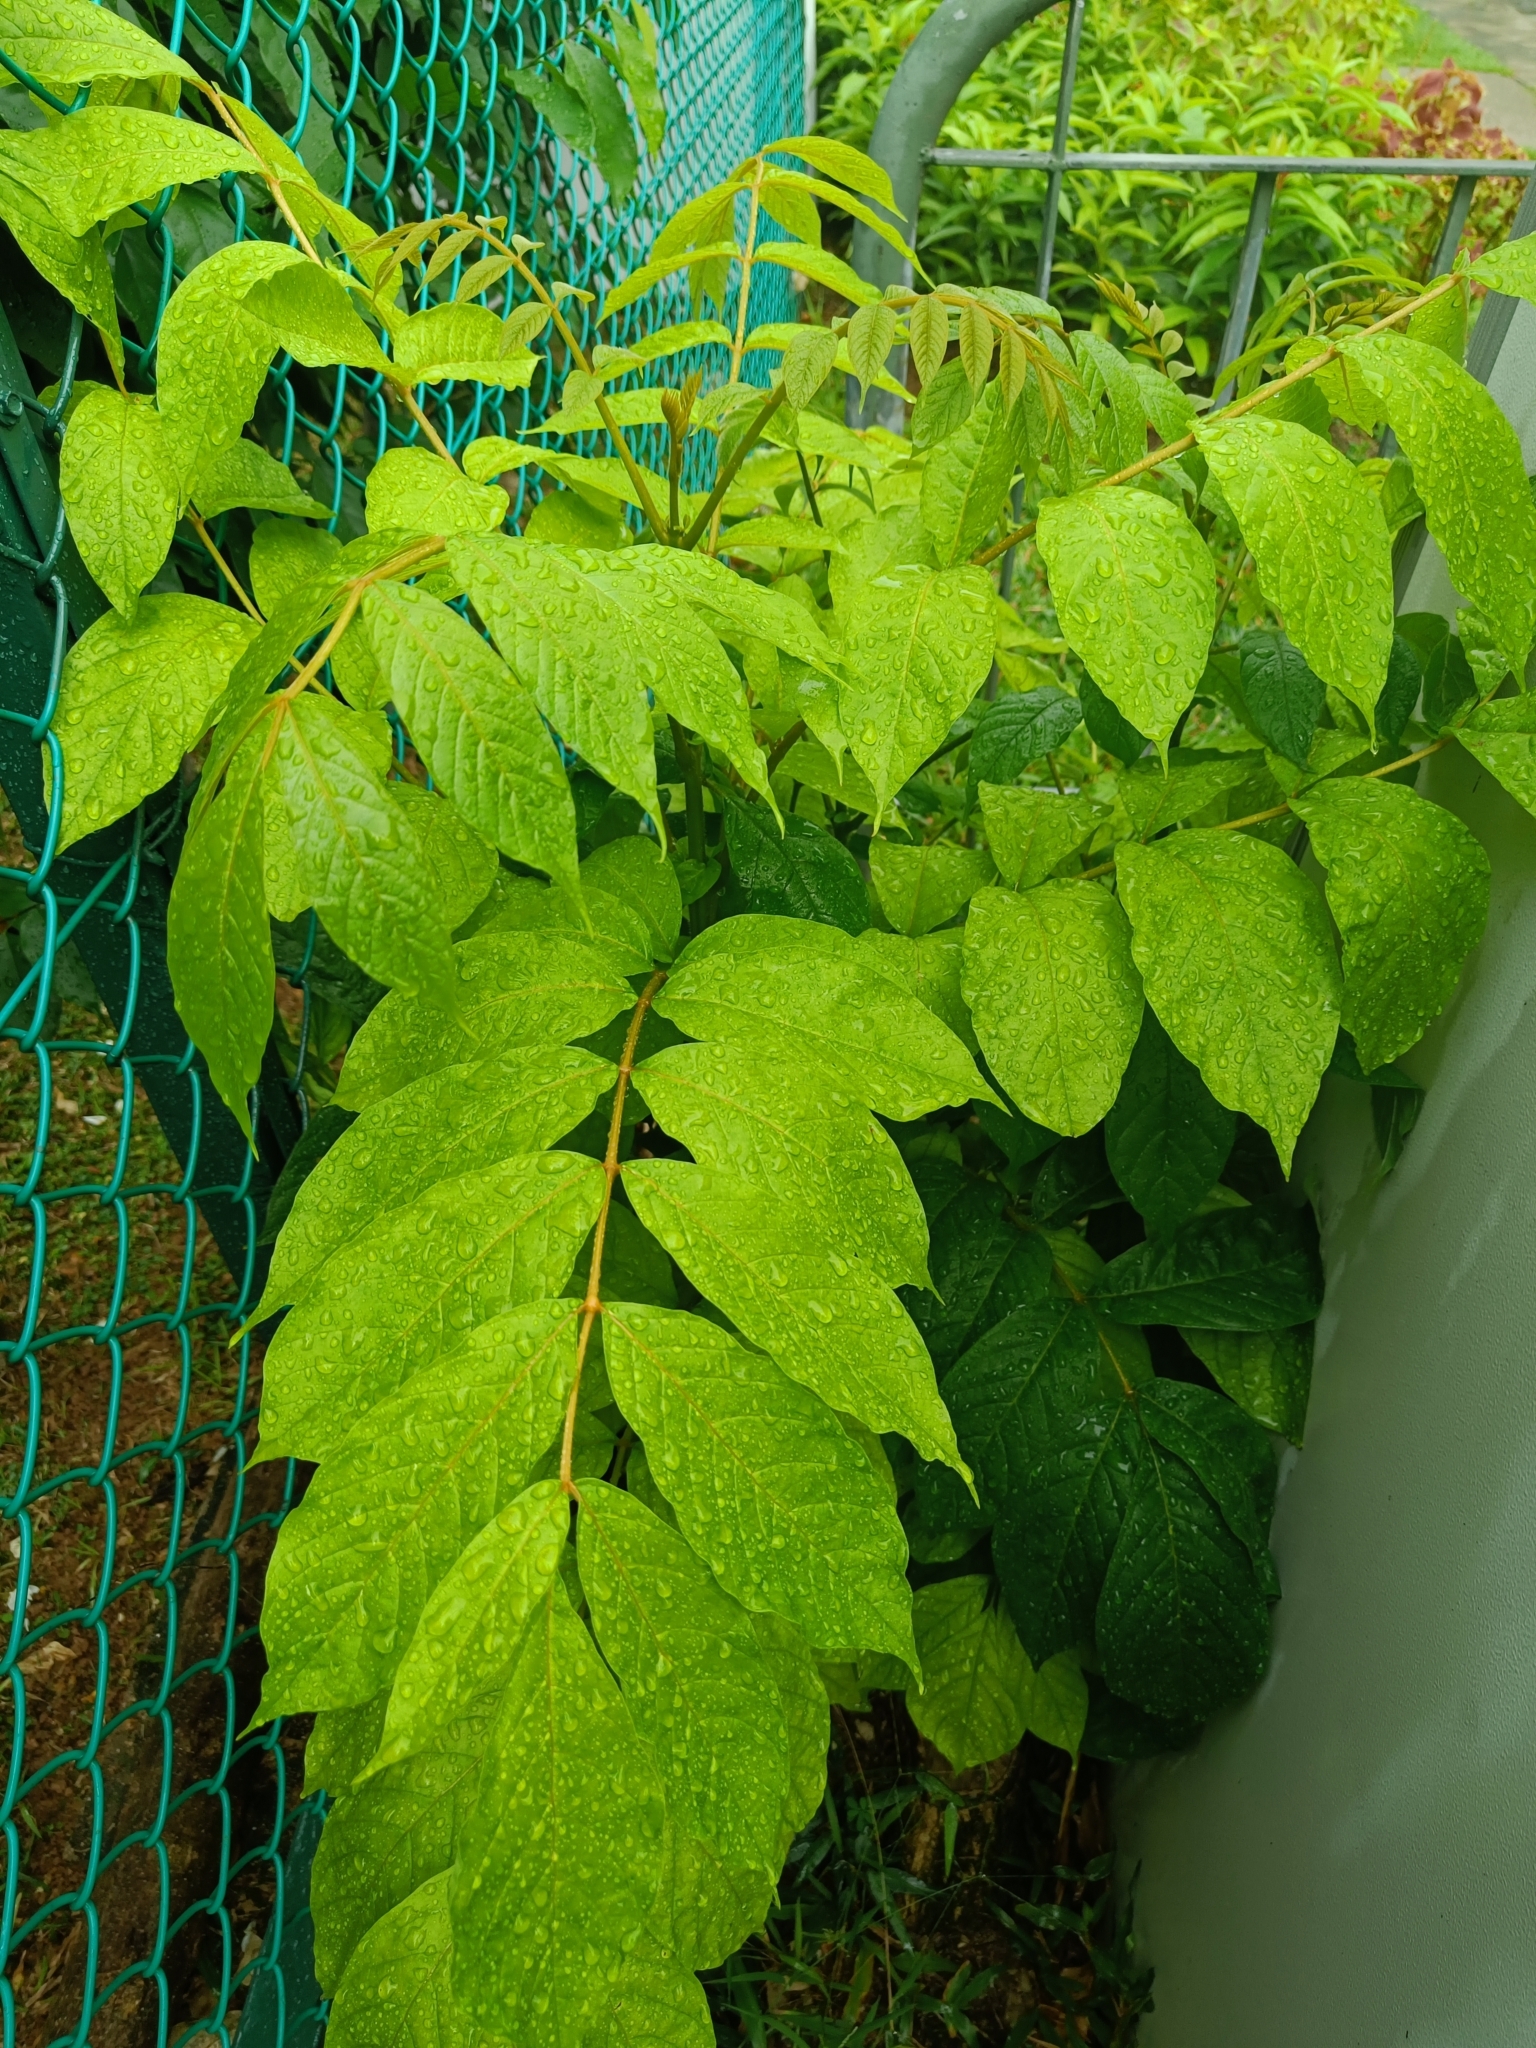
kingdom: Plantae
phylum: Tracheophyta
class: Magnoliopsida
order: Lamiales
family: Bignoniaceae
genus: Spathodea
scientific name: Spathodea campanulata
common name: African tuliptree
